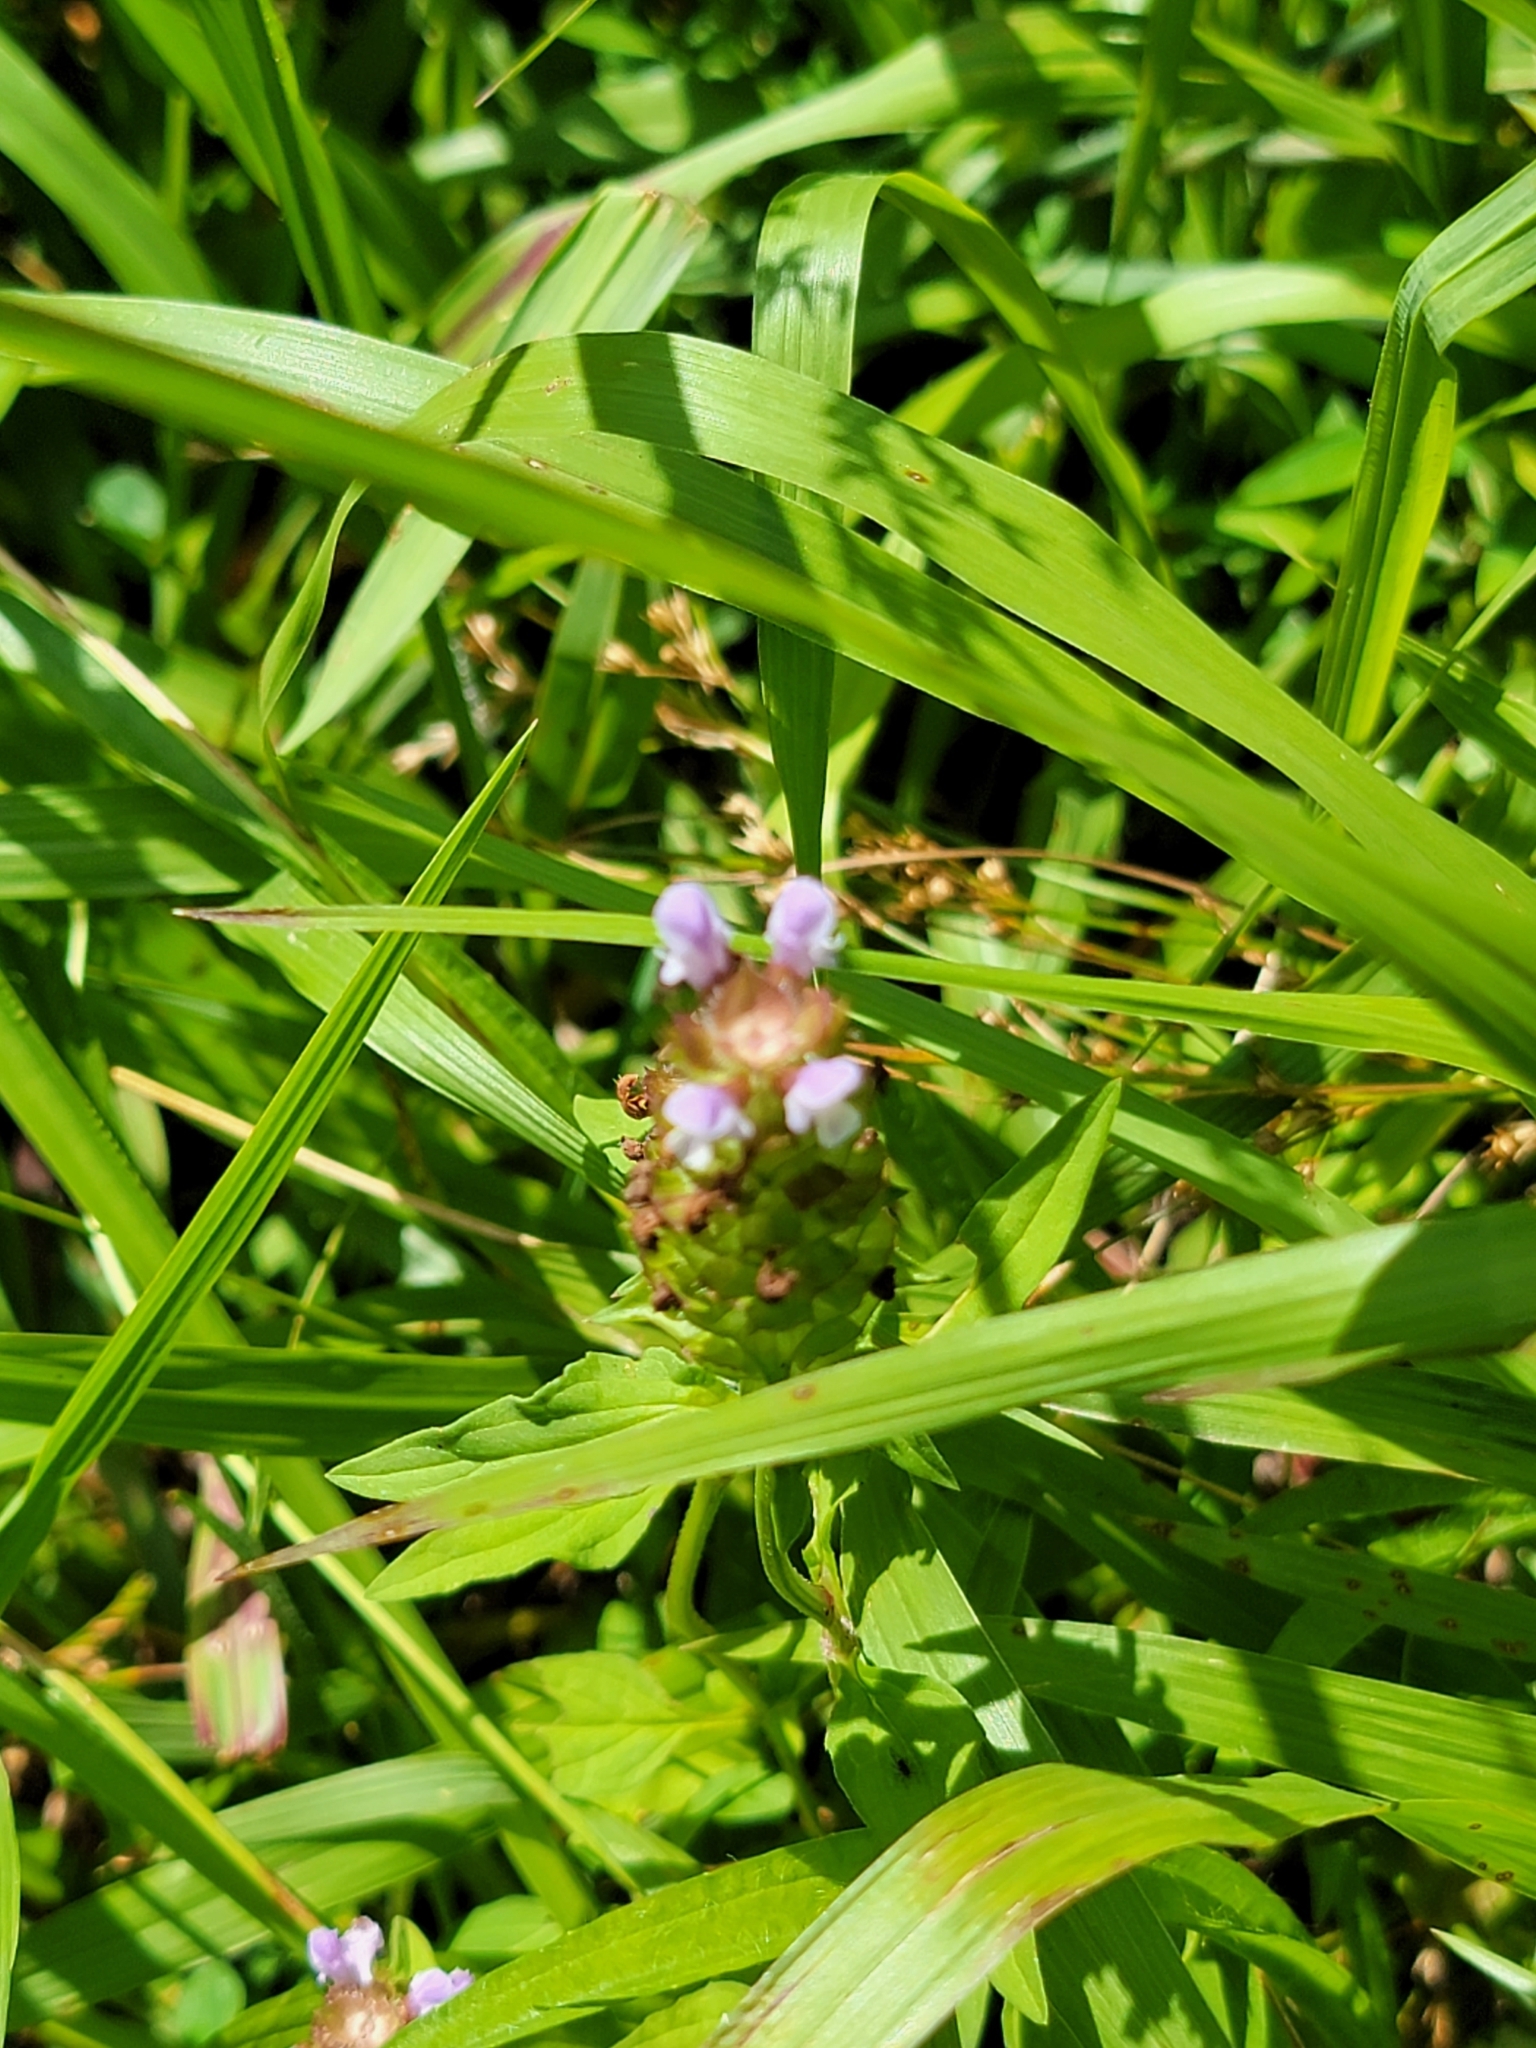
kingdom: Plantae
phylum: Tracheophyta
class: Magnoliopsida
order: Lamiales
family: Lamiaceae
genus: Prunella
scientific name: Prunella vulgaris
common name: Heal-all
